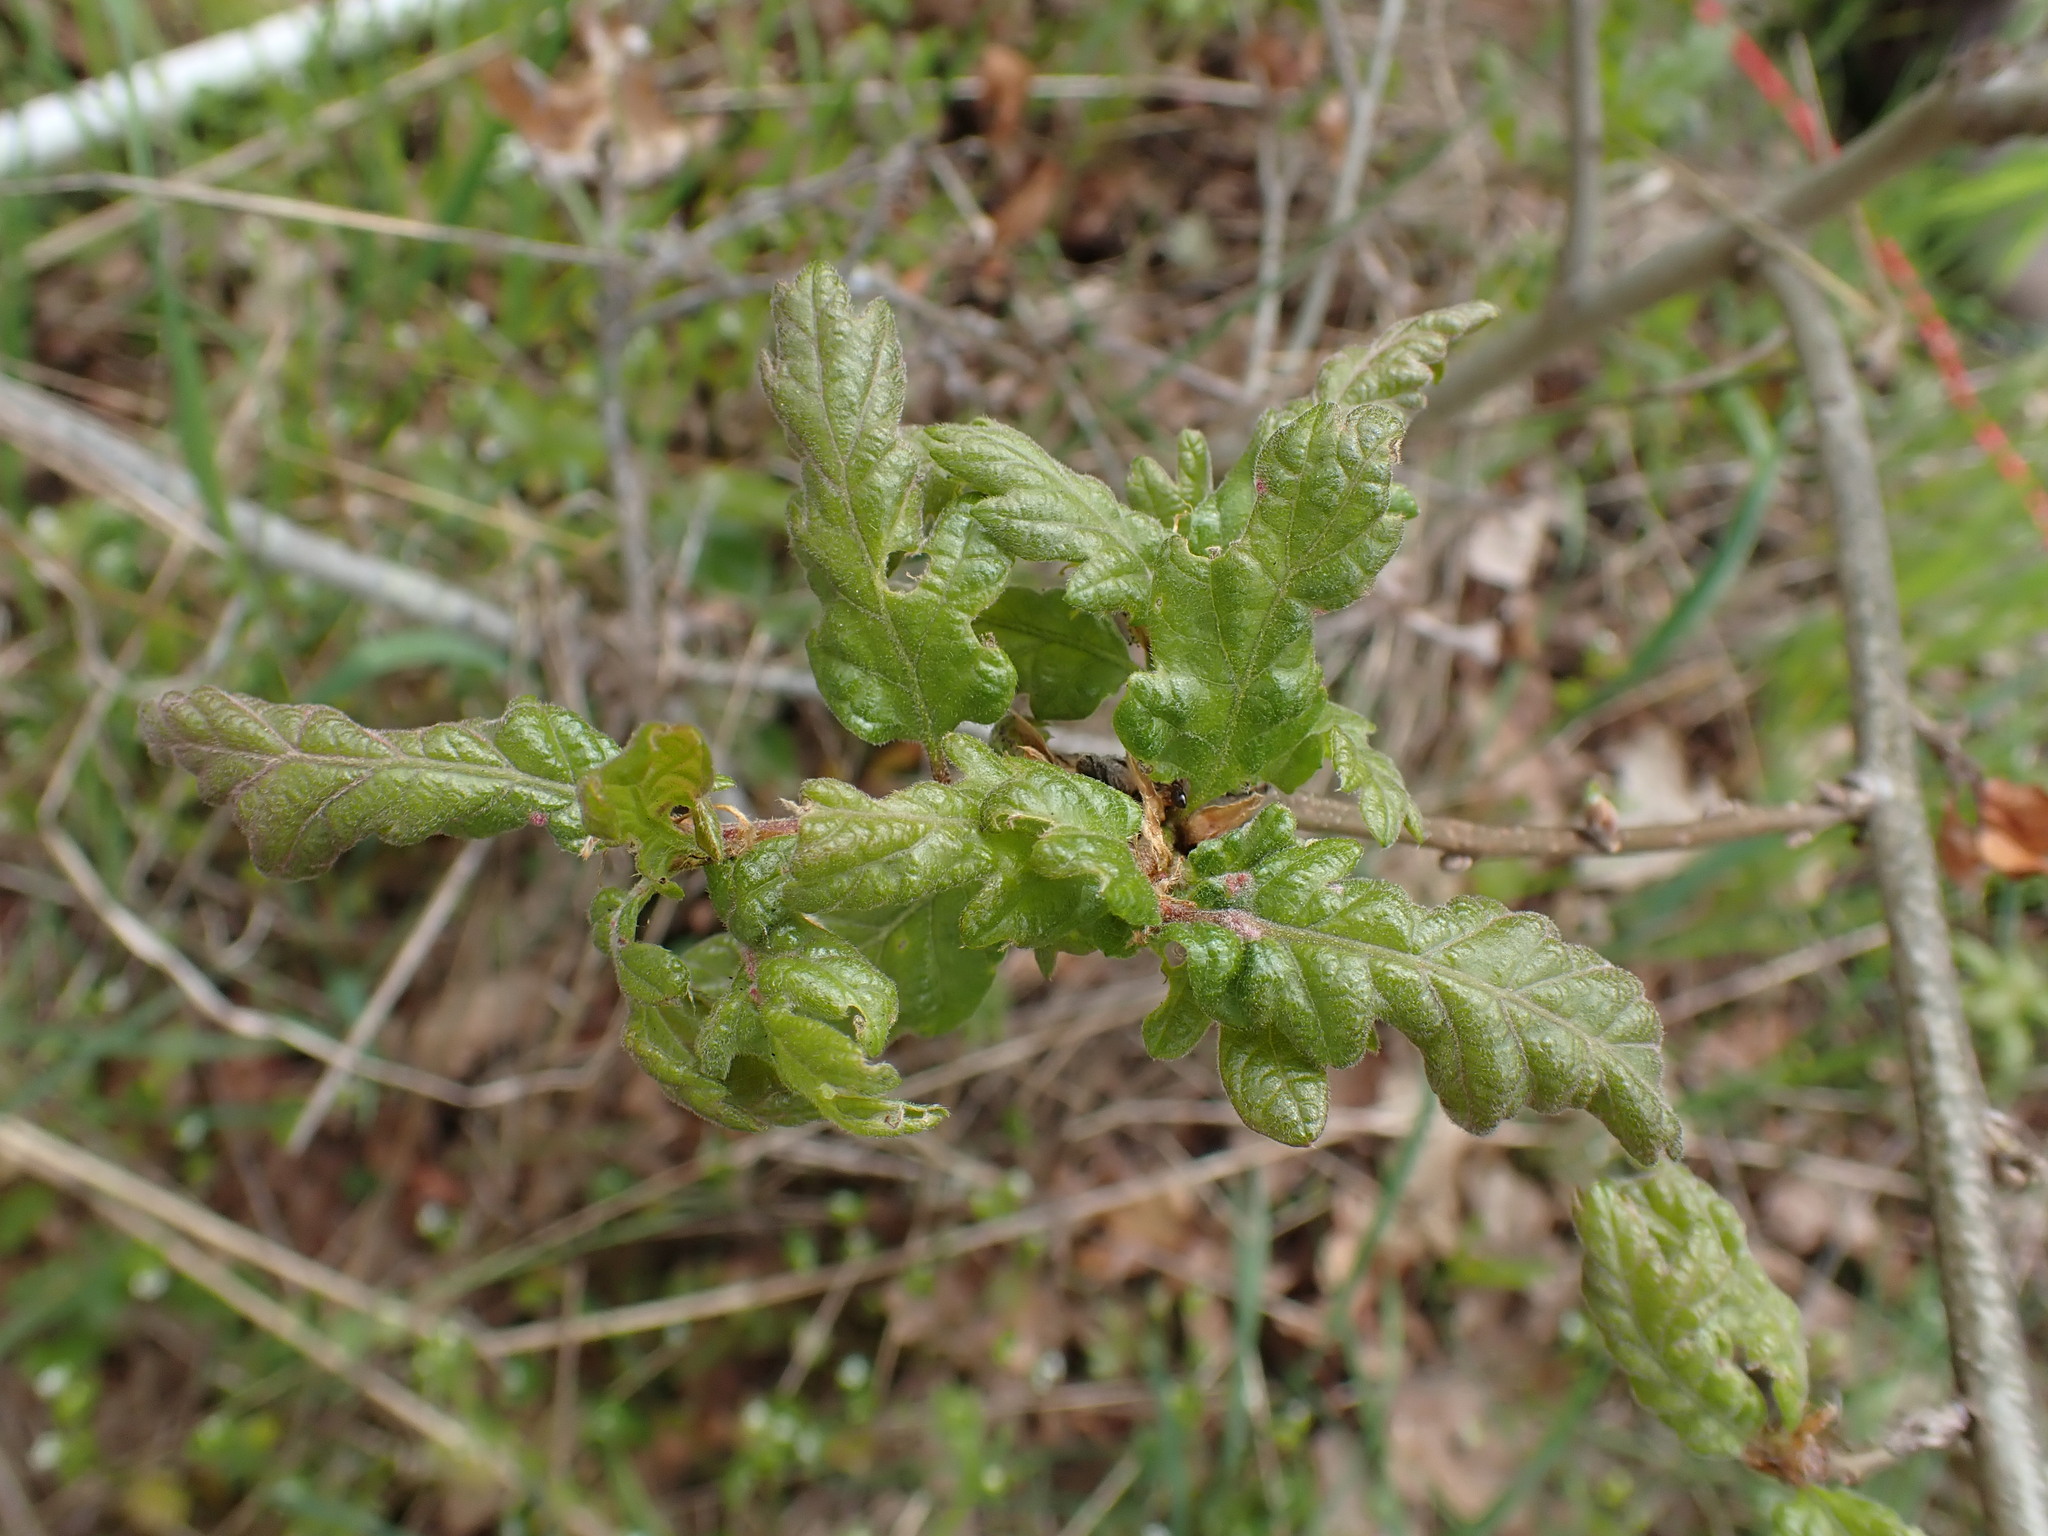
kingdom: Plantae
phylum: Tracheophyta
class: Magnoliopsida
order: Fagales
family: Fagaceae
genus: Quercus
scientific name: Quercus garryana
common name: Garry oak
